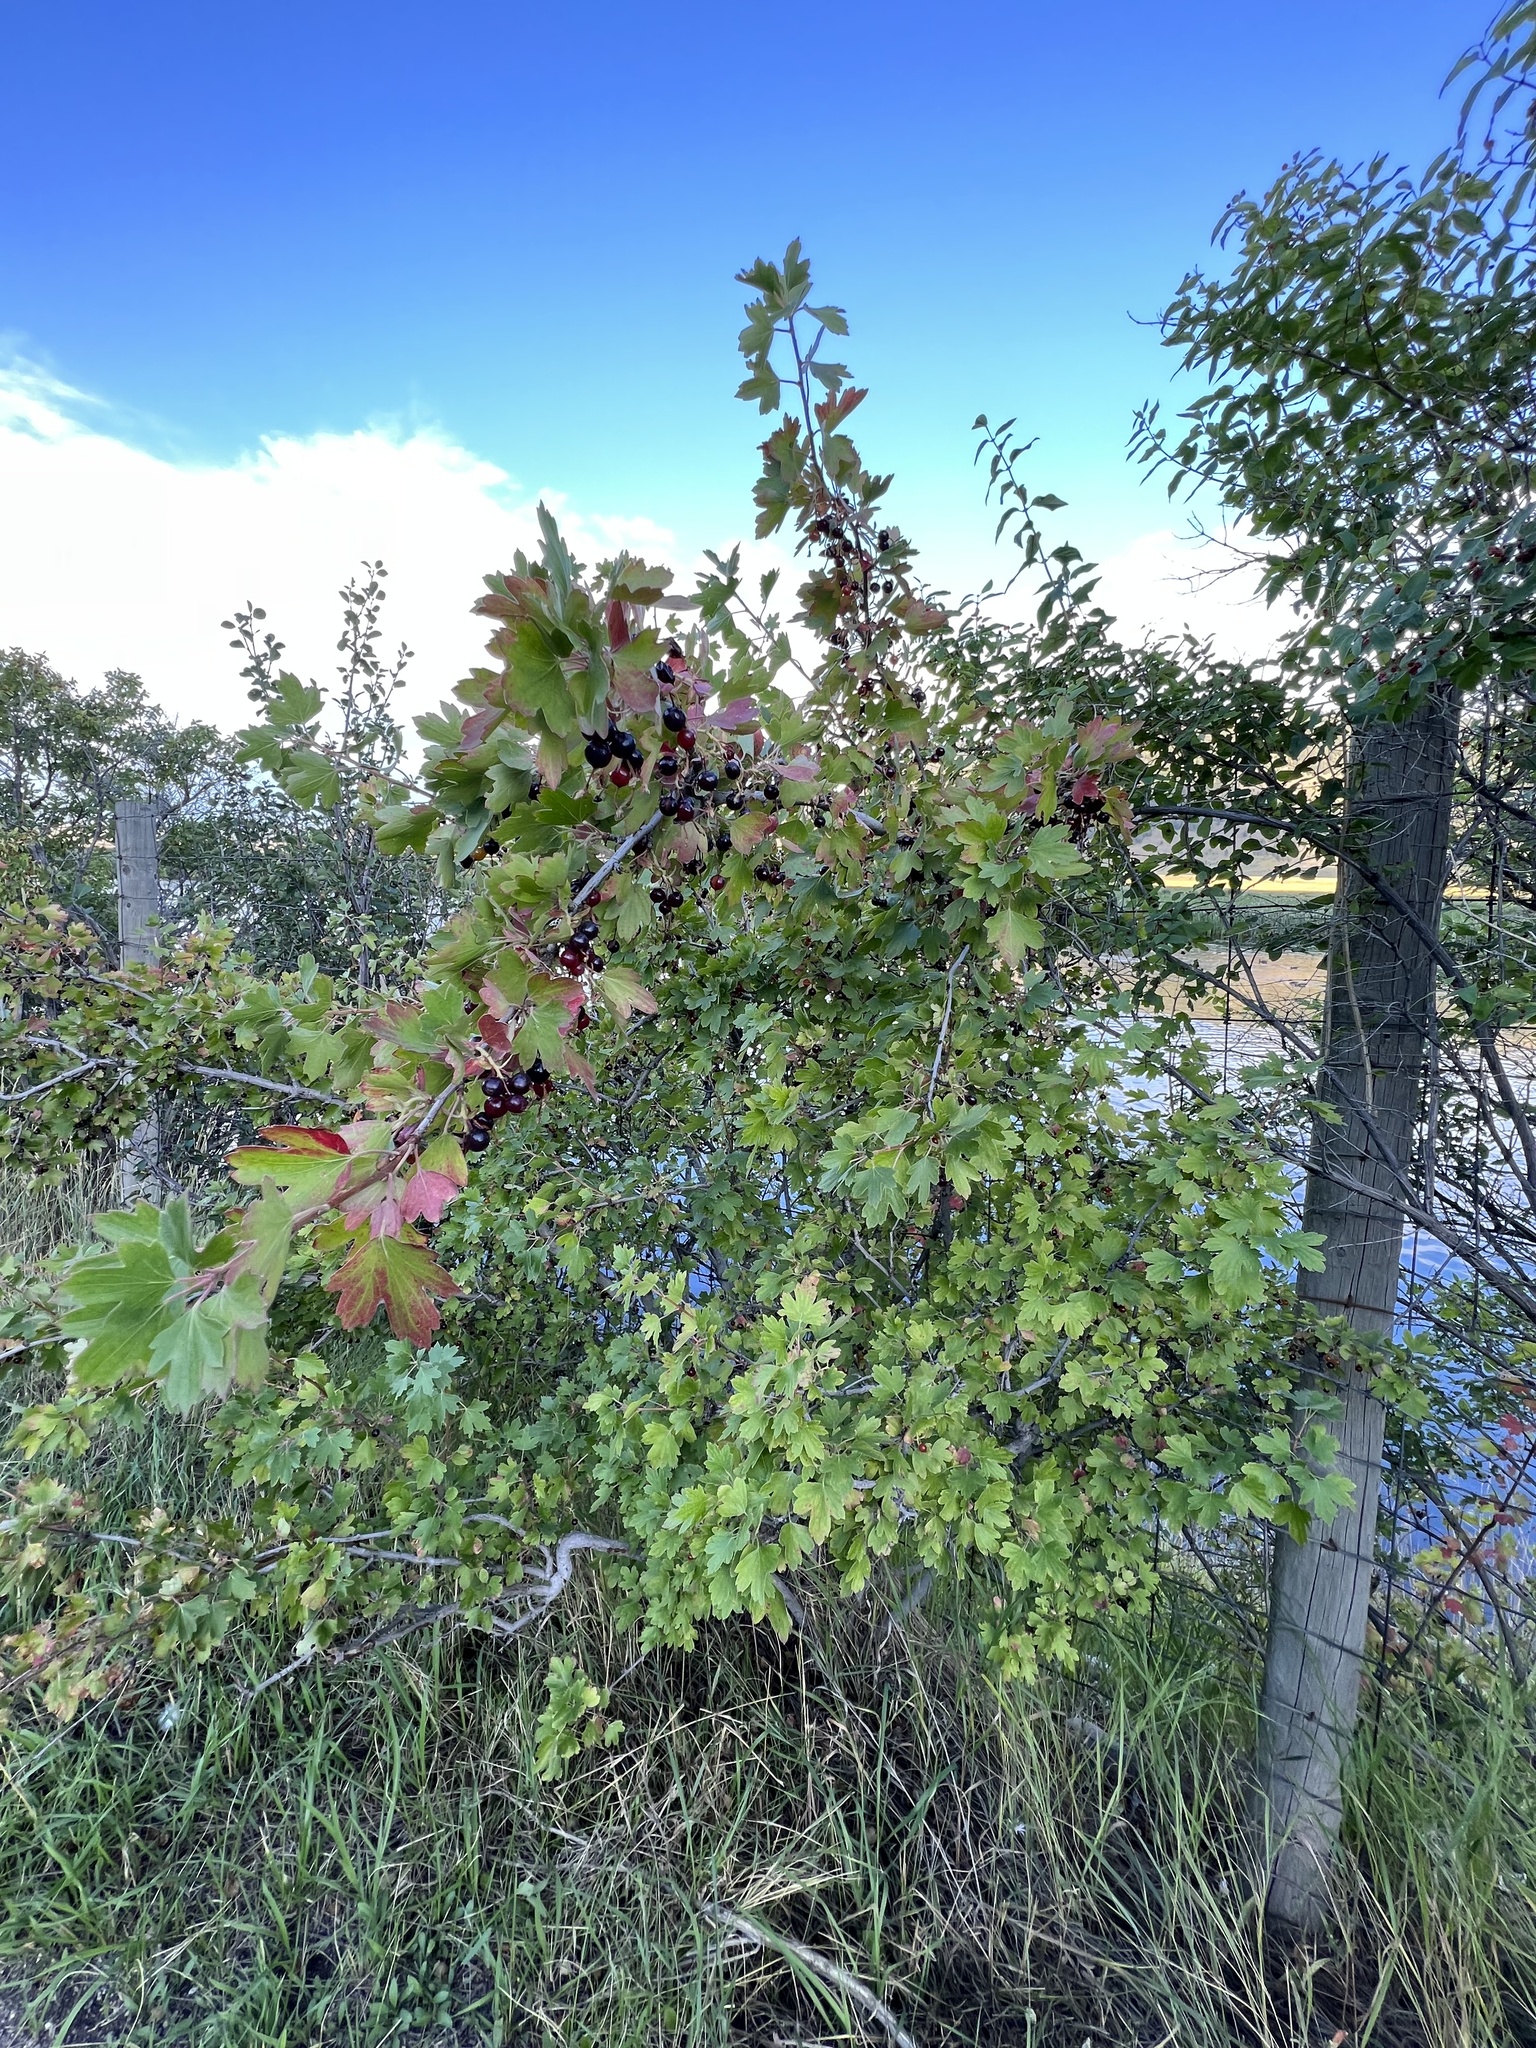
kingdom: Plantae
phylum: Tracheophyta
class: Magnoliopsida
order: Saxifragales
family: Grossulariaceae
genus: Ribes
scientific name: Ribes aureum
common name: Golden currant
